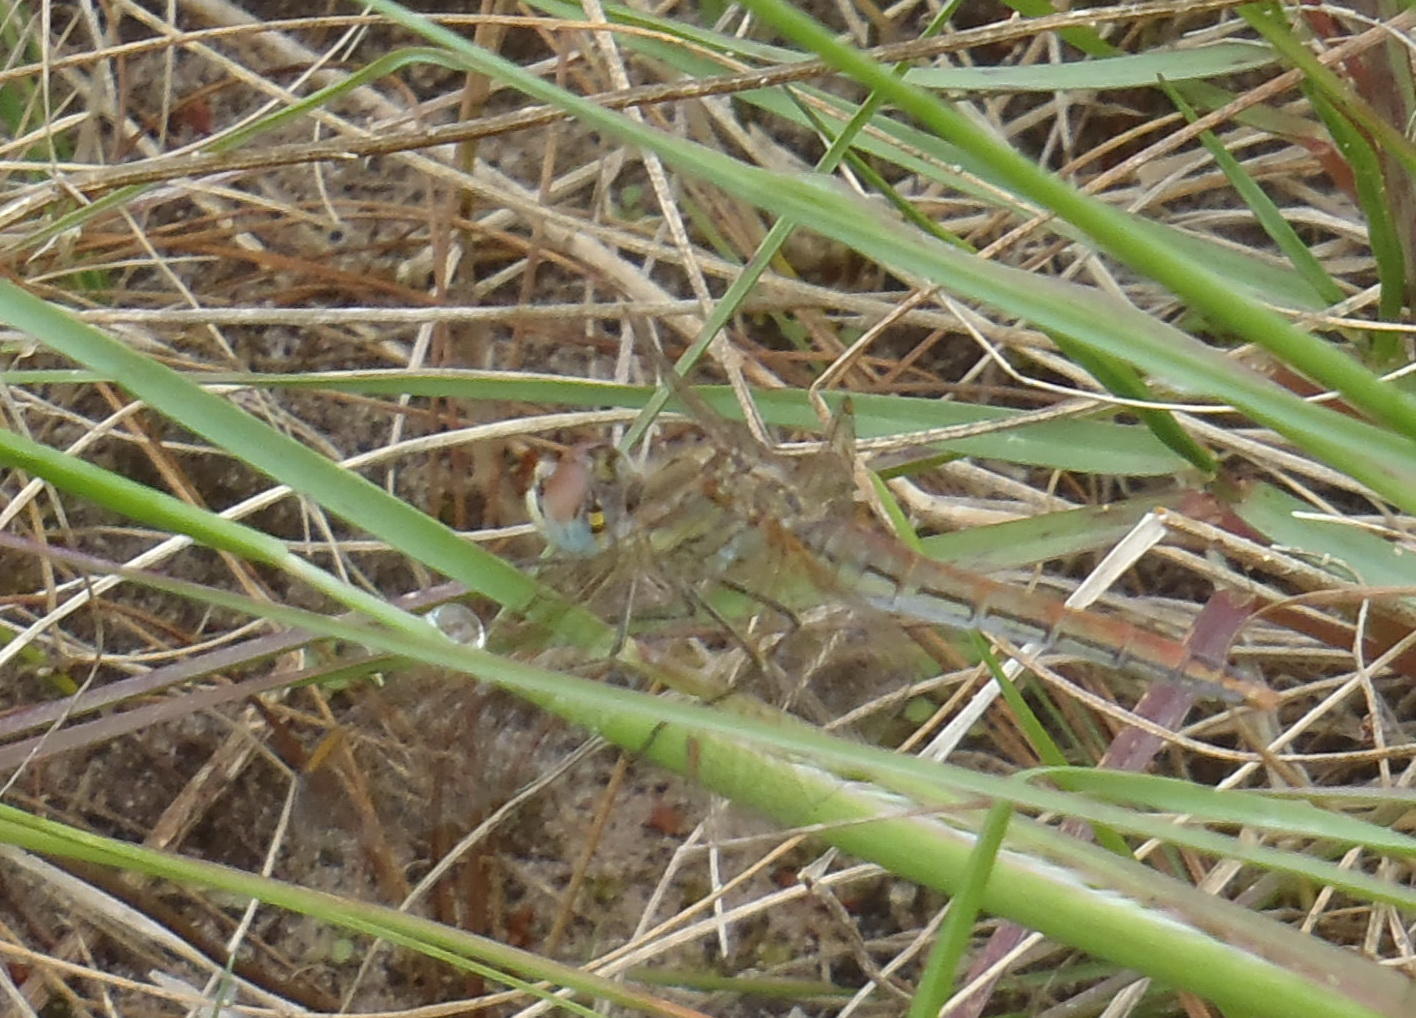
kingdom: Animalia
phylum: Arthropoda
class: Insecta
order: Odonata
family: Libellulidae
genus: Sympetrum
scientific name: Sympetrum fonscolombii
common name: Red-veined darter
